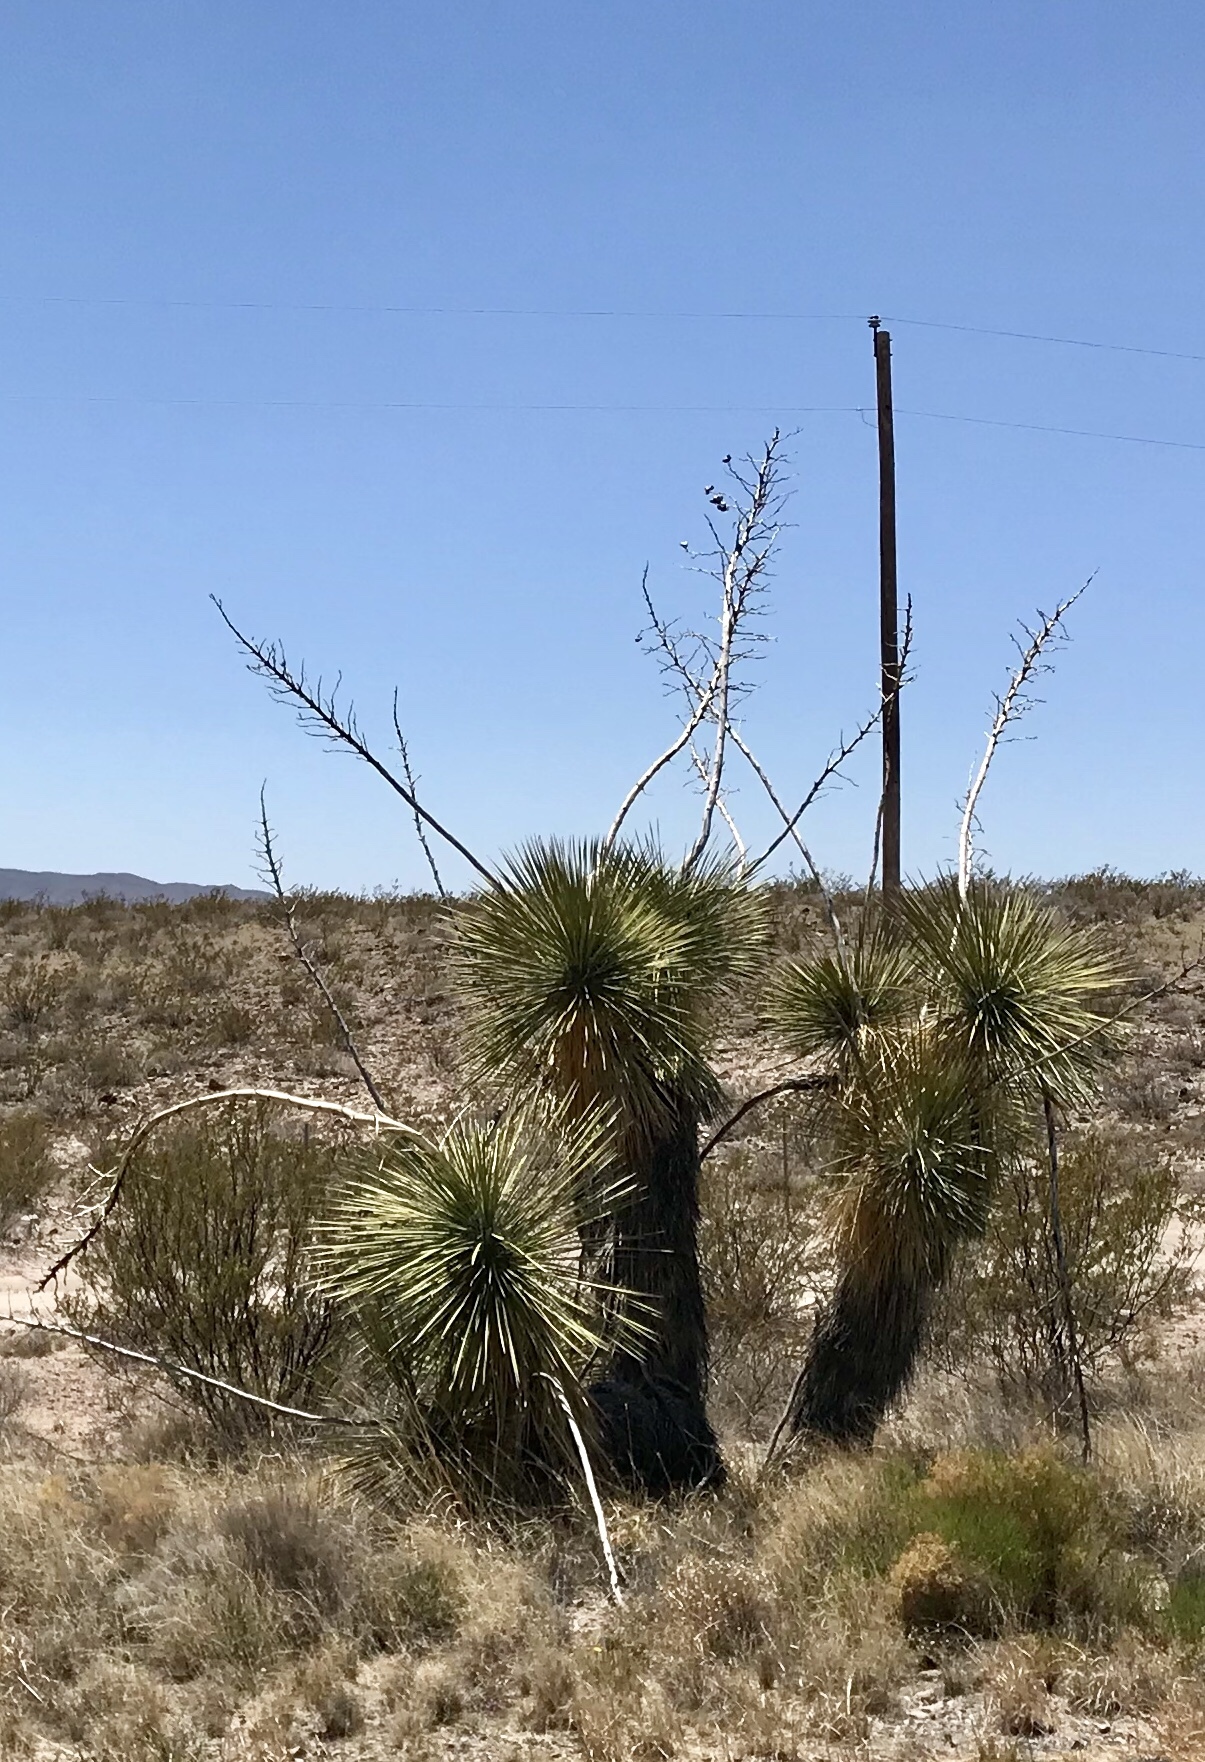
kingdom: Plantae
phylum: Tracheophyta
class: Liliopsida
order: Asparagales
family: Asparagaceae
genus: Yucca
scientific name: Yucca elata
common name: Palmella
